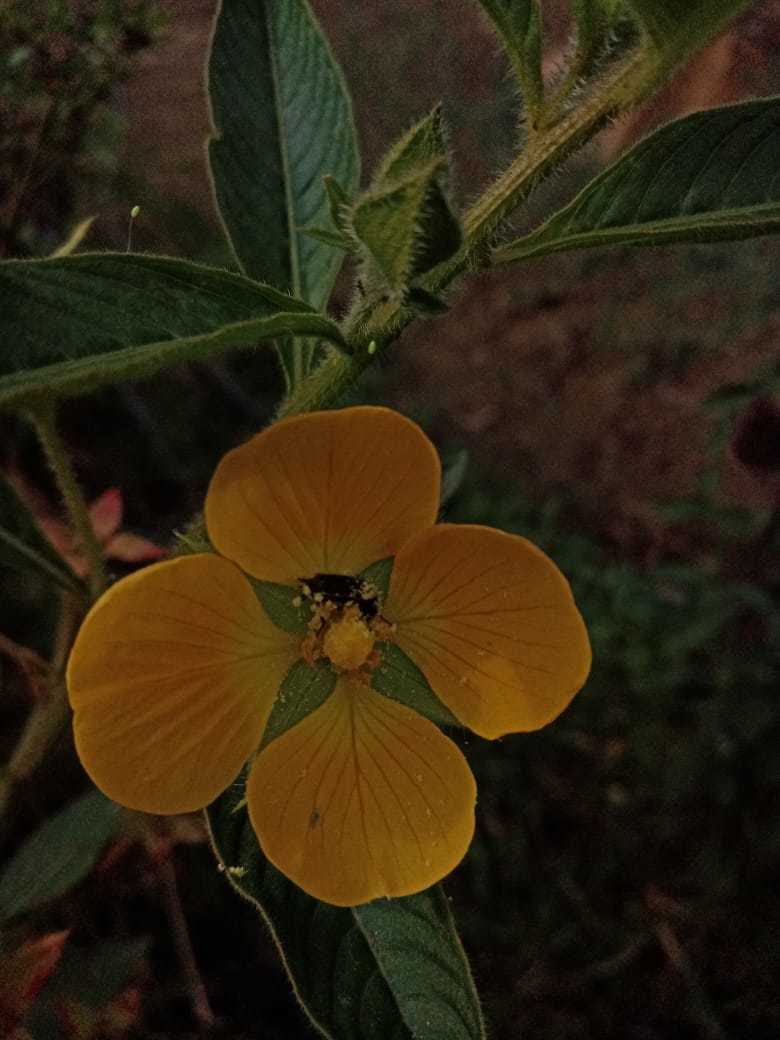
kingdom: Plantae
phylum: Tracheophyta
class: Magnoliopsida
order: Myrtales
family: Onagraceae
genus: Ludwigia
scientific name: Ludwigia peruviana
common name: Peruvian primrose-willow
